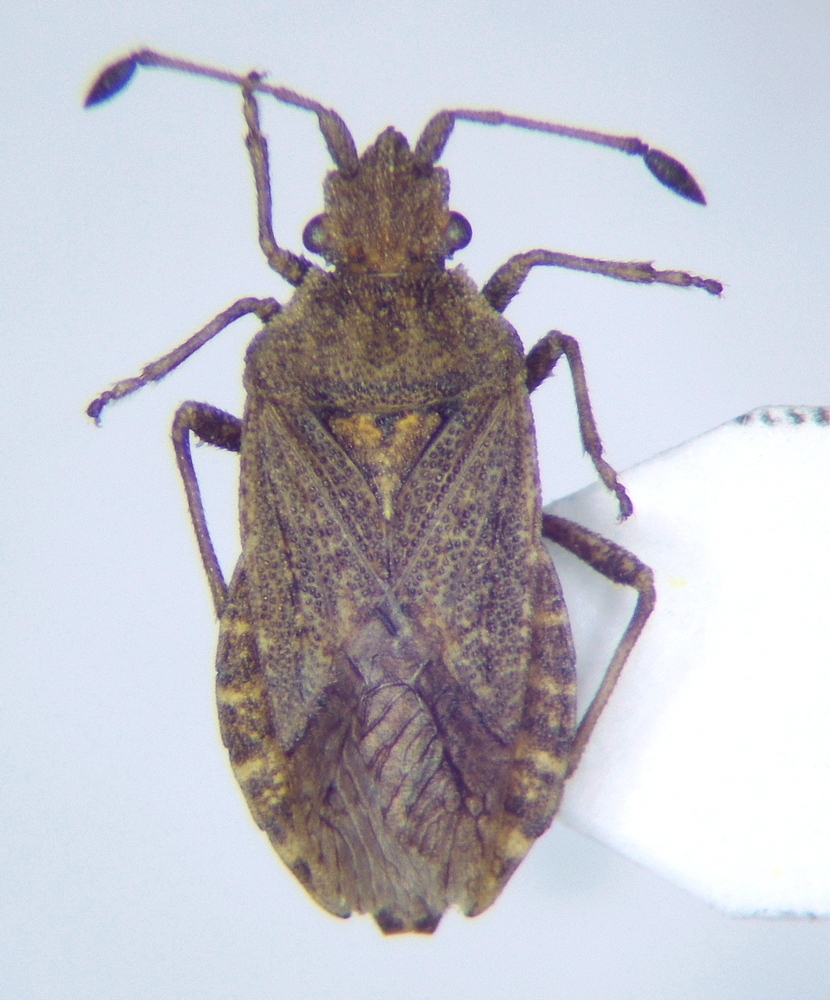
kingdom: Animalia
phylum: Arthropoda
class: Insecta
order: Hemiptera
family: Coreidae
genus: Bathysolen
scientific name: Bathysolen nubilus
